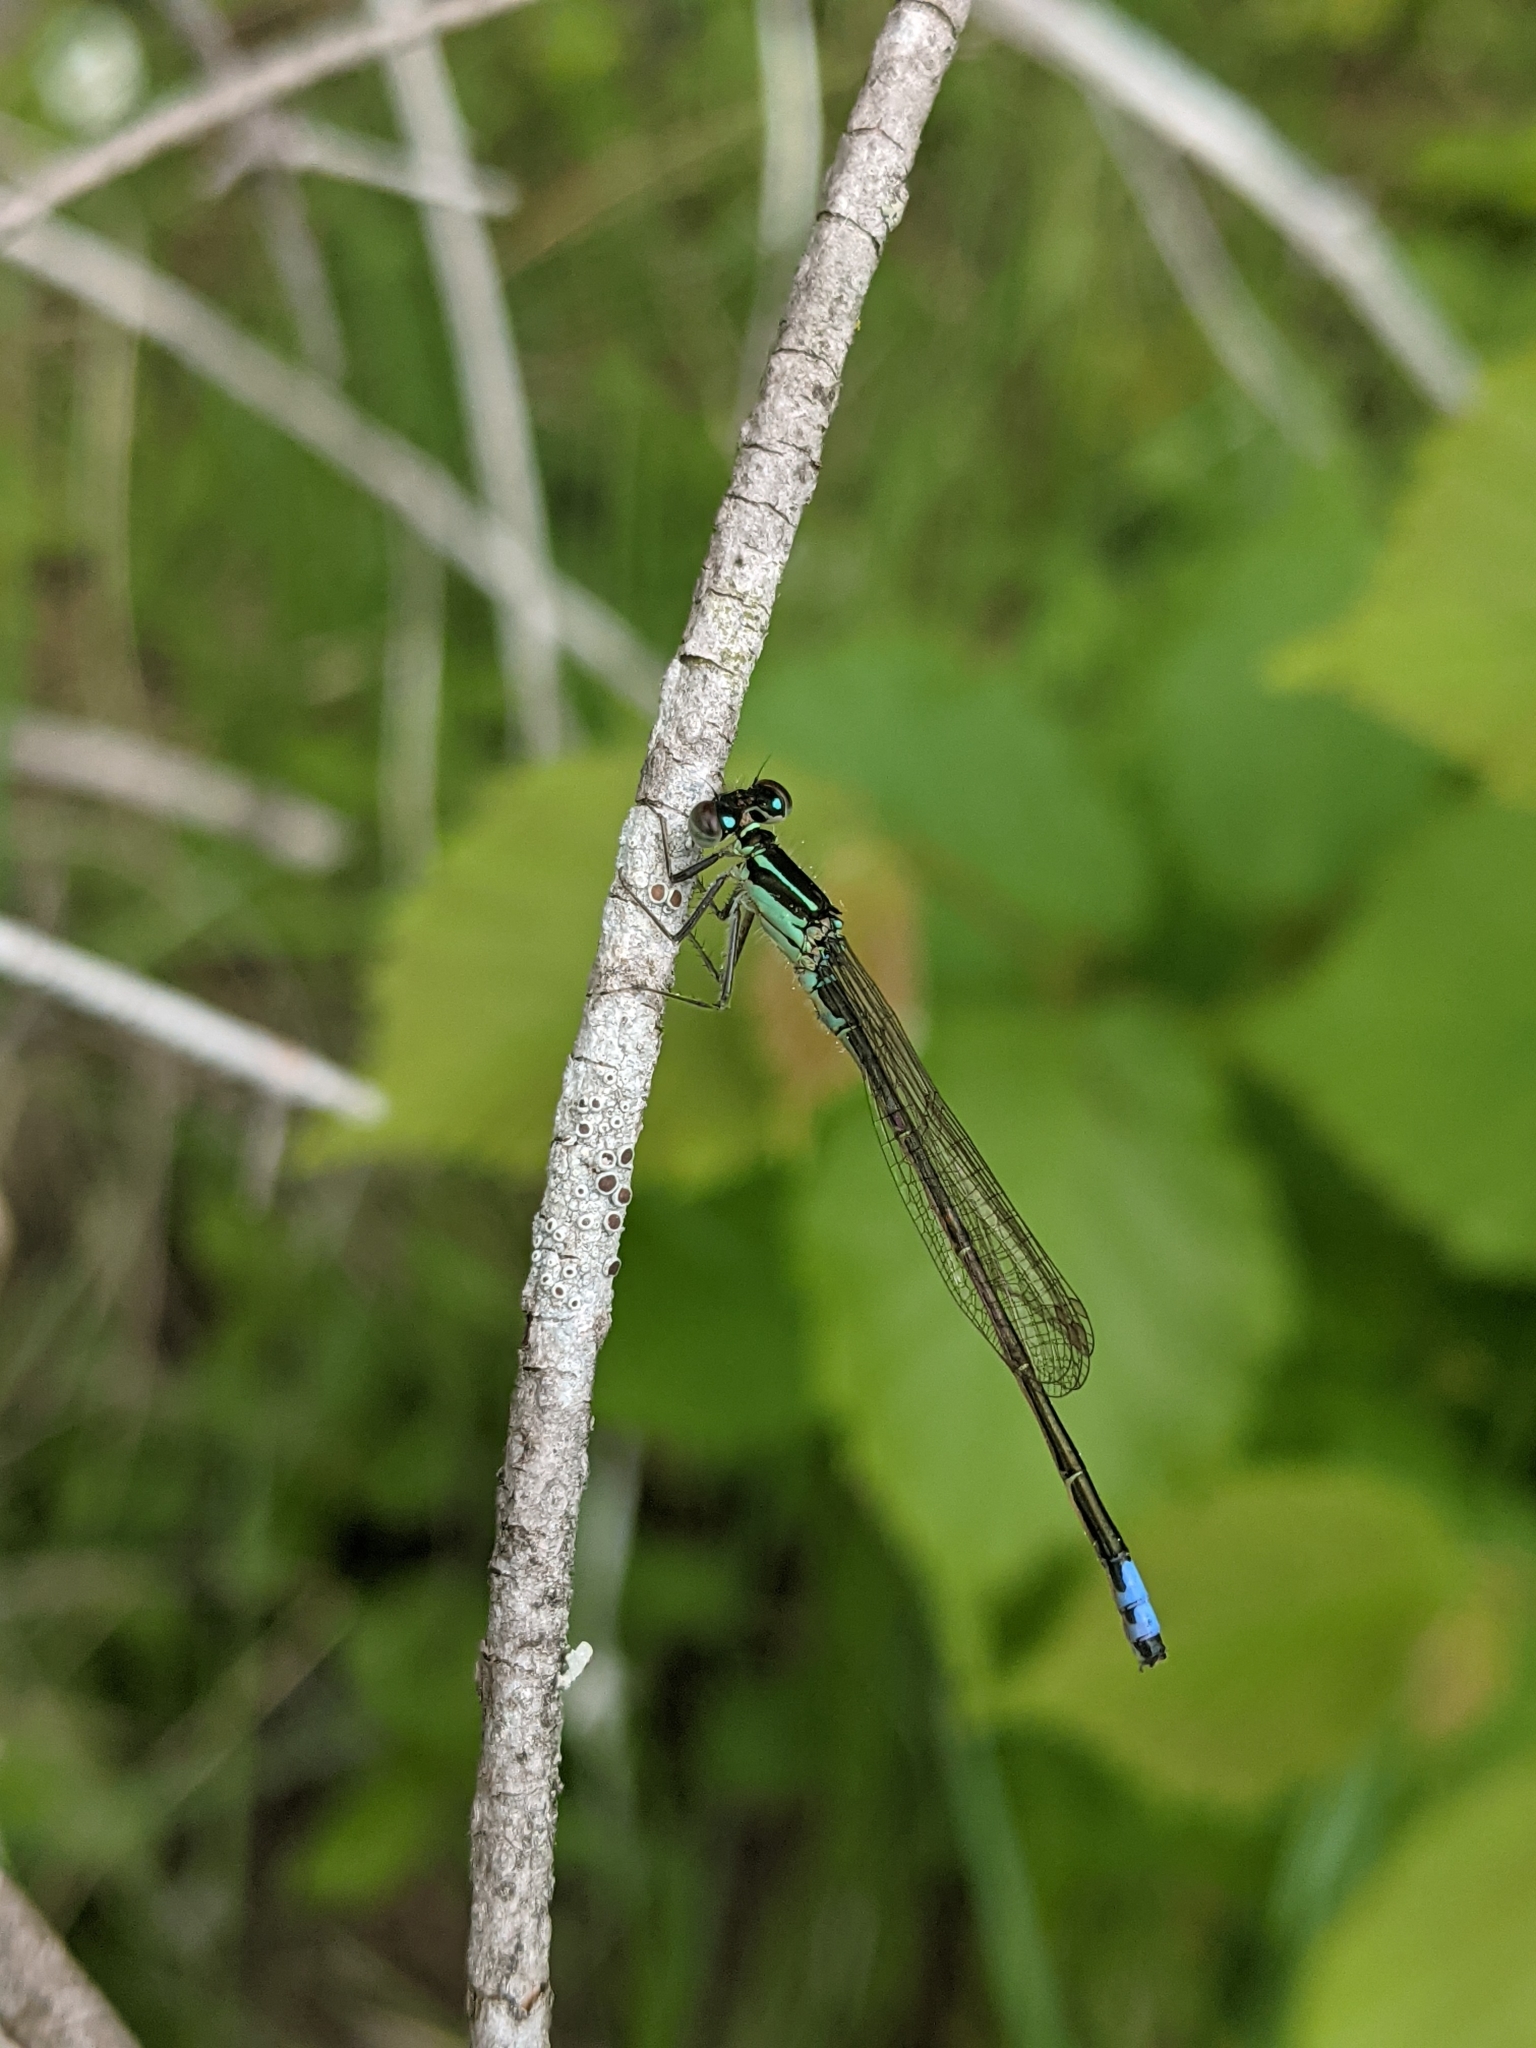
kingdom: Animalia
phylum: Arthropoda
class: Insecta
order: Odonata
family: Coenagrionidae
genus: Ischnura
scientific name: Ischnura verticalis
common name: Eastern forktail
